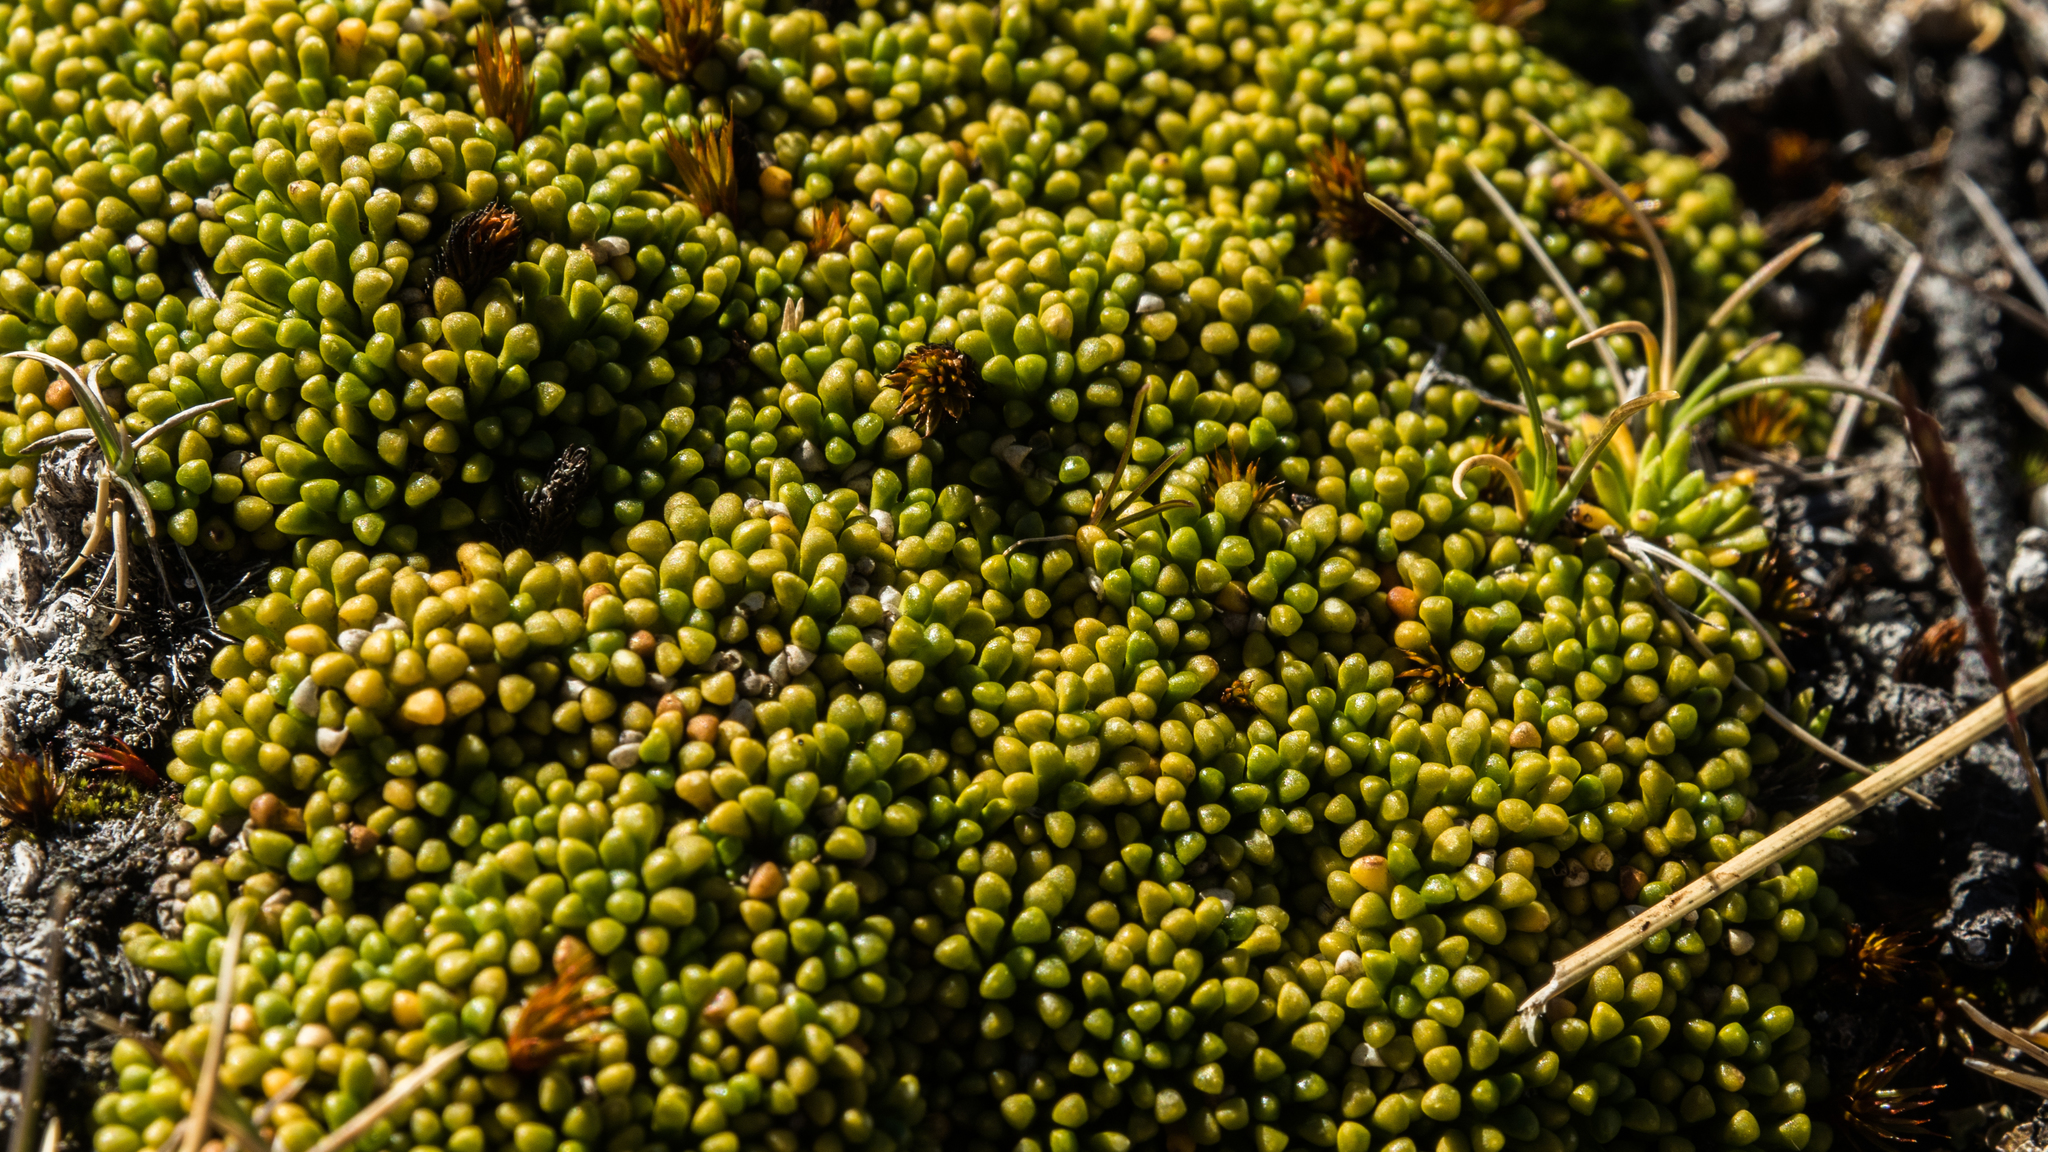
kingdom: Plantae
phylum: Tracheophyta
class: Magnoliopsida
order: Asterales
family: Stylidiaceae
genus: Phyllachne
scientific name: Phyllachne rubra
